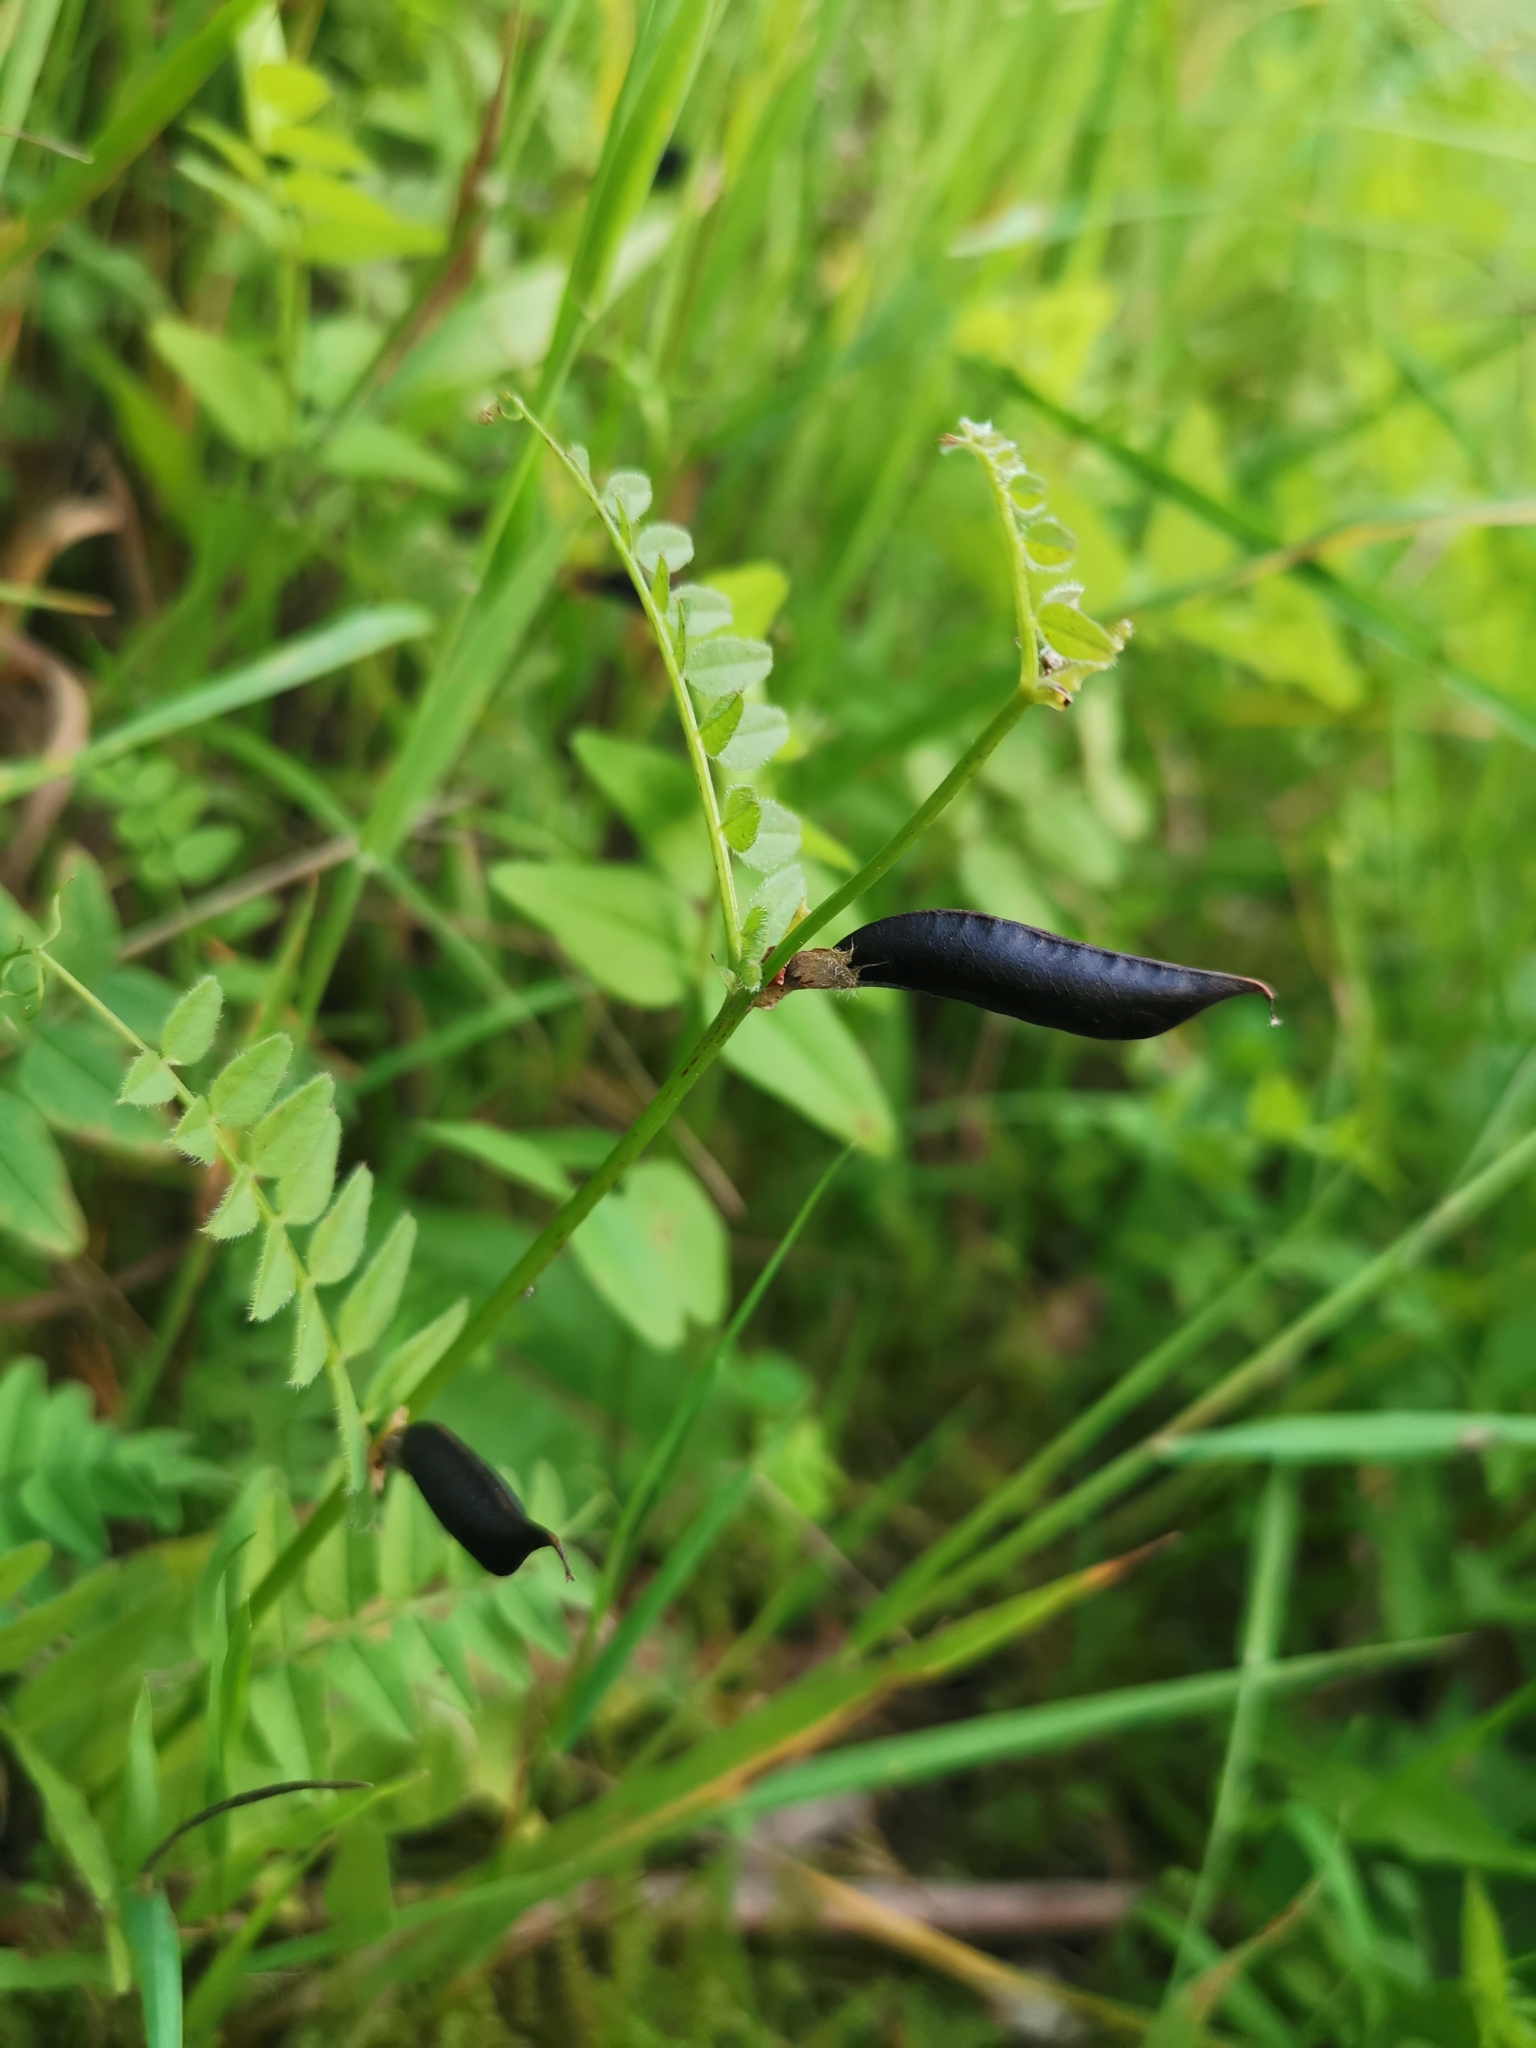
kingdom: Plantae
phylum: Tracheophyta
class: Magnoliopsida
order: Fabales
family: Fabaceae
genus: Vicia
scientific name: Vicia sepium
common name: Bush vetch
